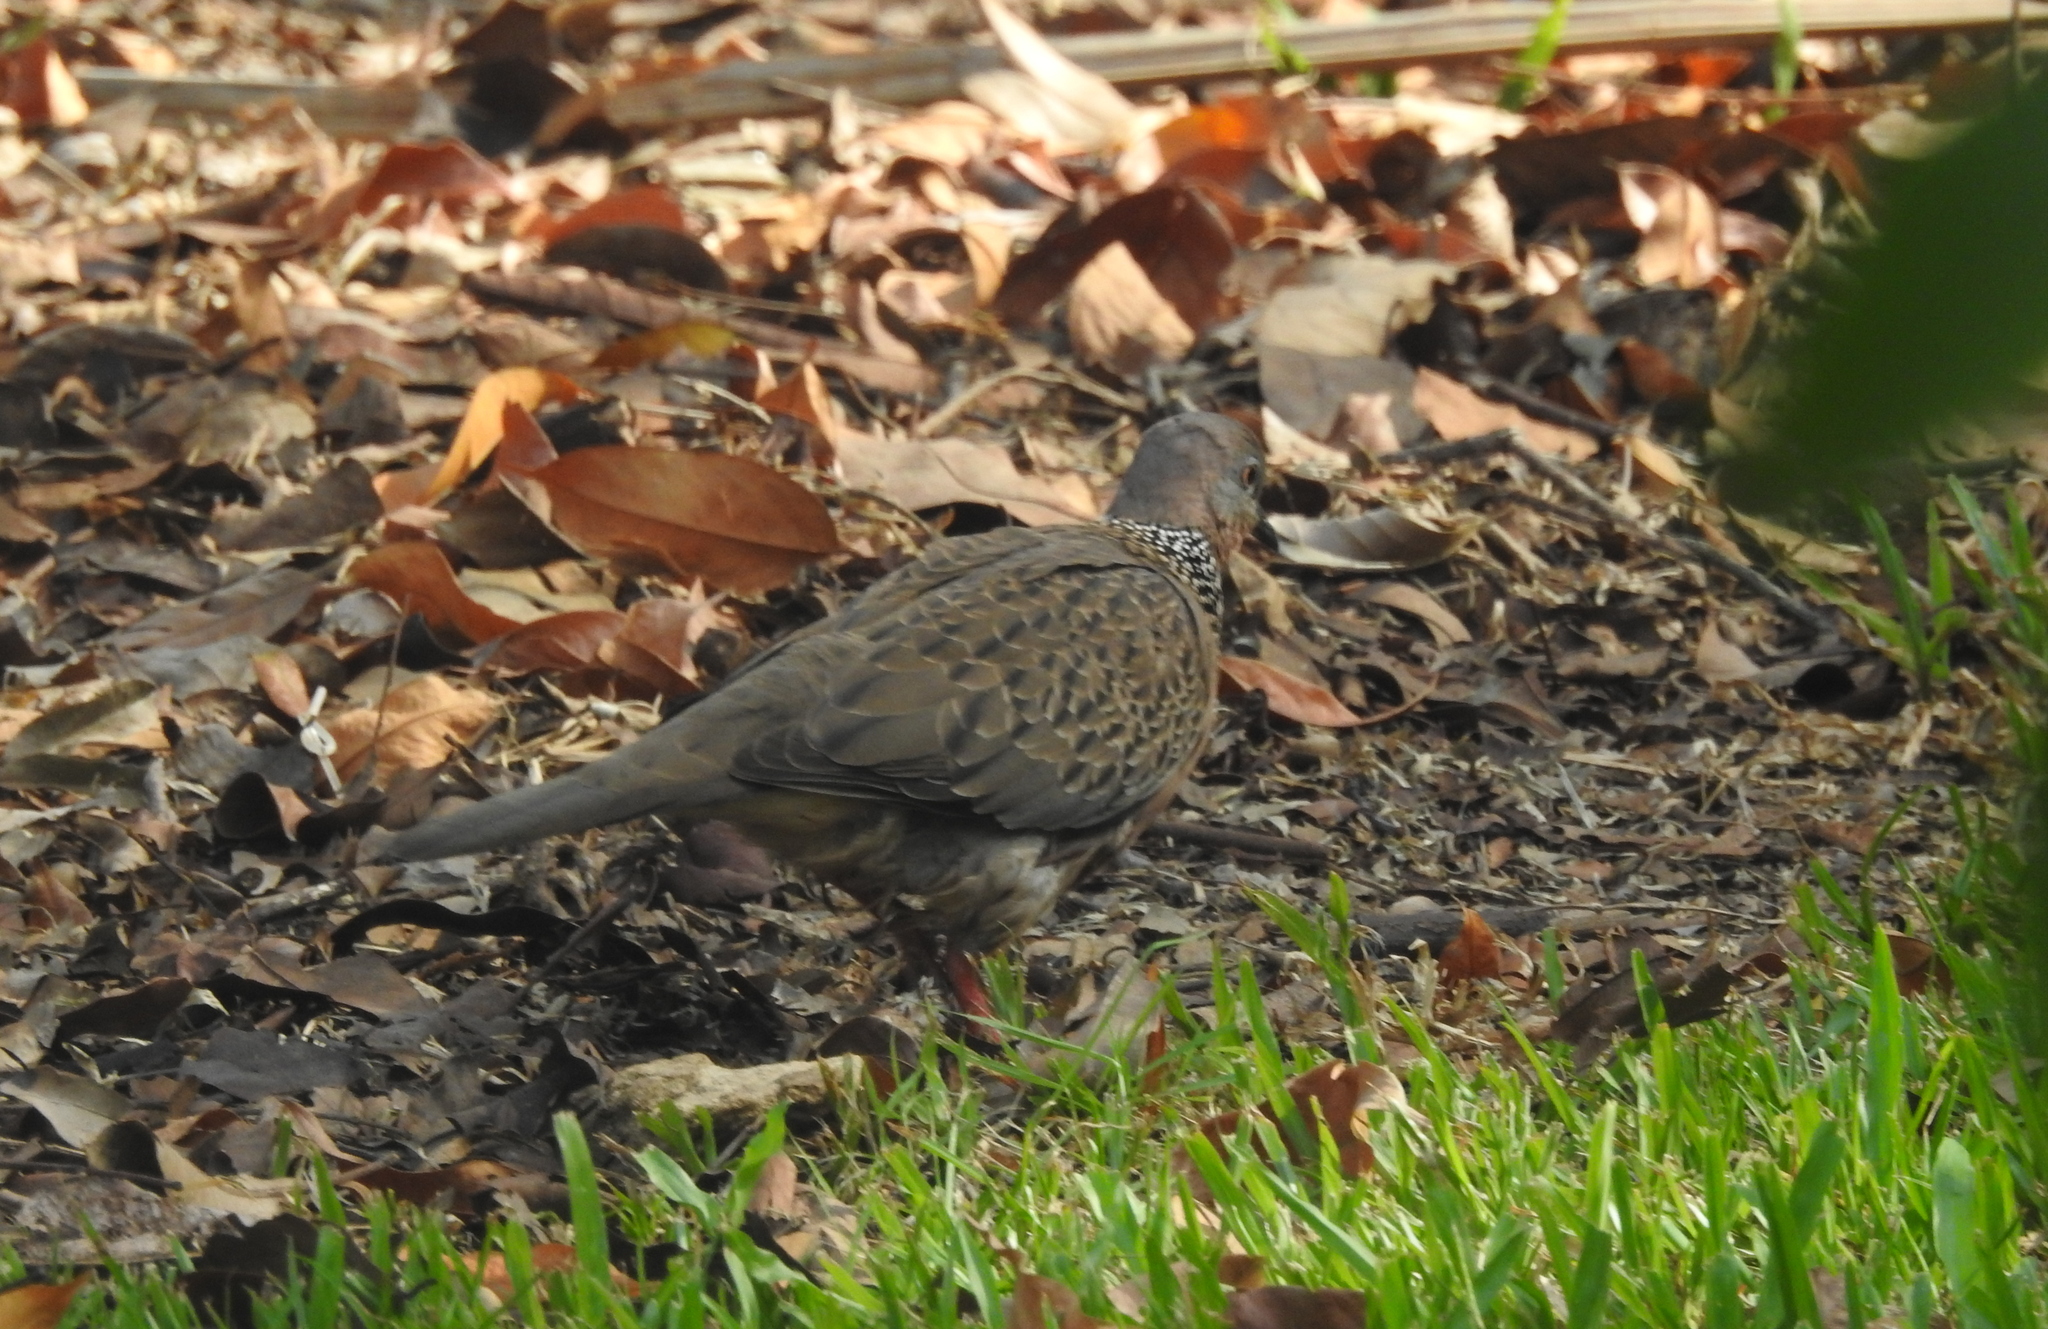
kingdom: Animalia
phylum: Chordata
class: Aves
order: Columbiformes
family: Columbidae
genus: Spilopelia
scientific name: Spilopelia chinensis
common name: Spotted dove
